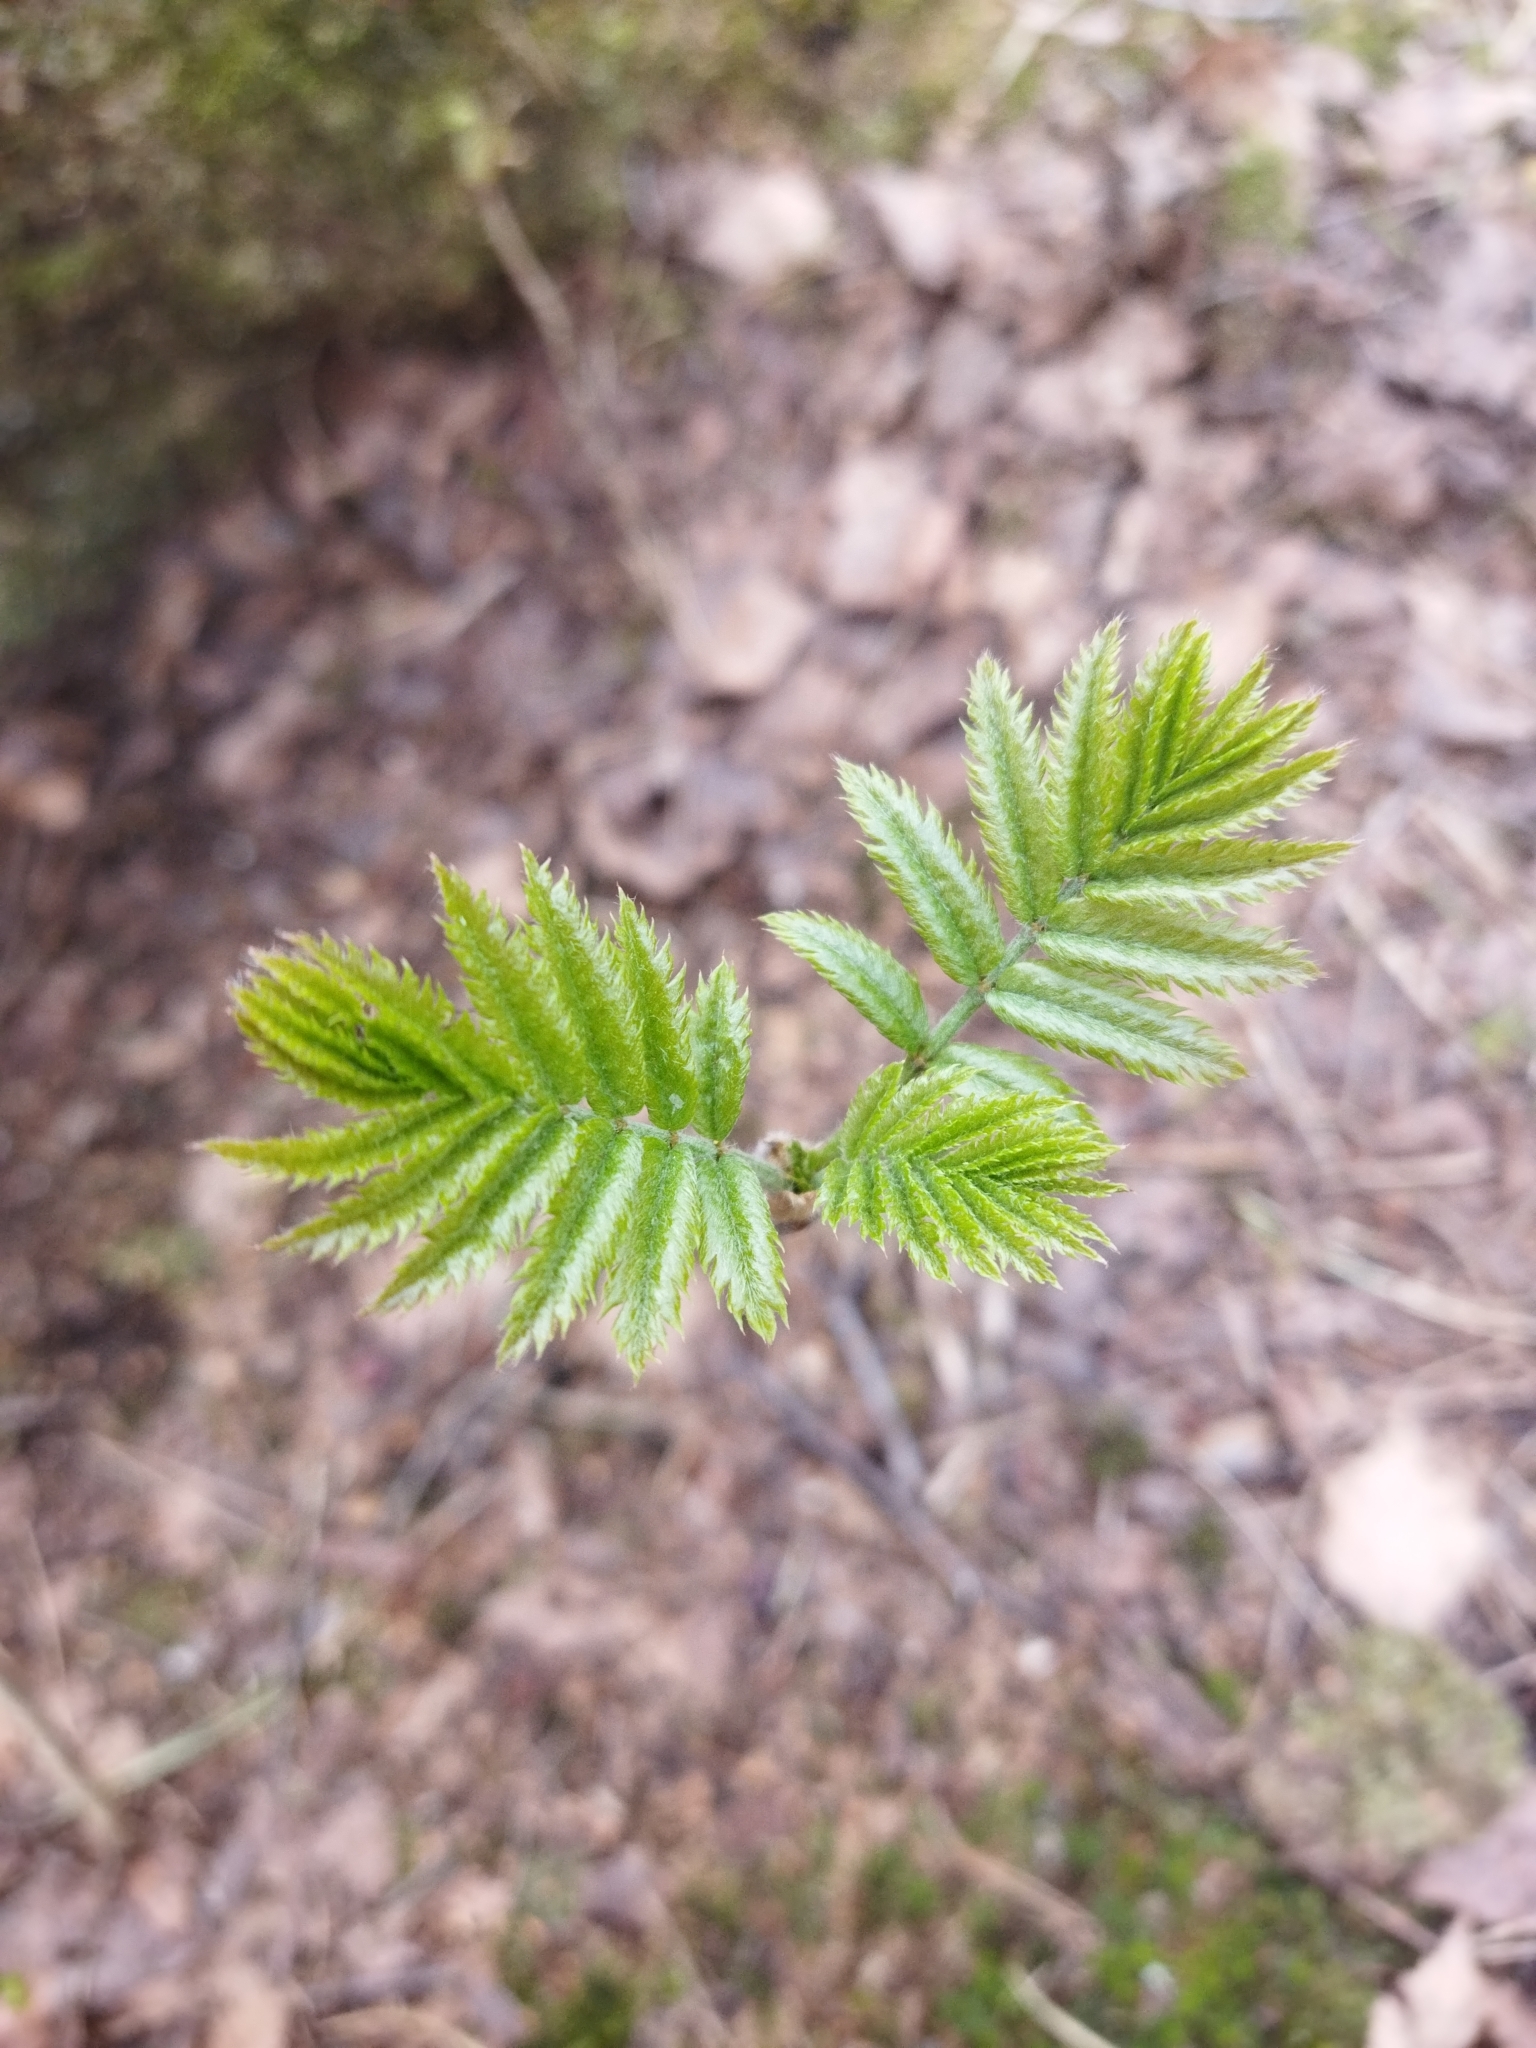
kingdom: Plantae
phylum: Tracheophyta
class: Magnoliopsida
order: Rosales
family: Rosaceae
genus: Sorbus
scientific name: Sorbus aucuparia
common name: Rowan
